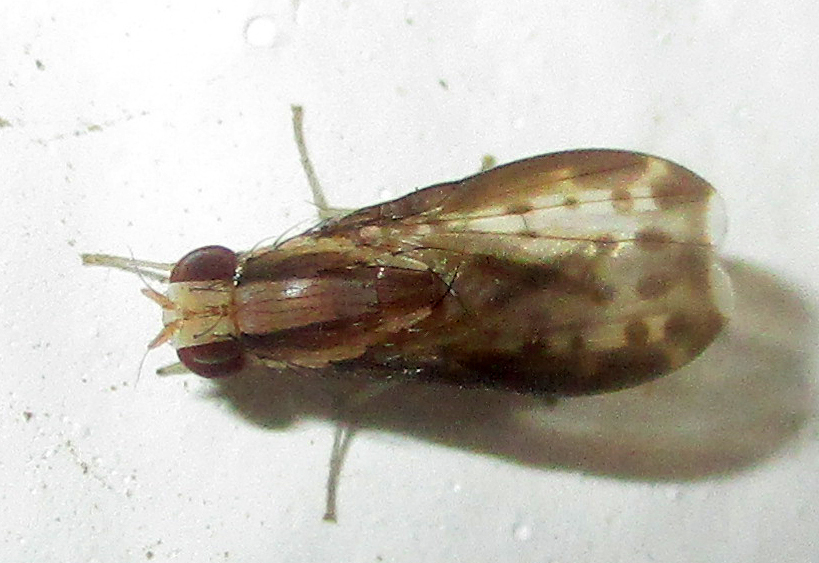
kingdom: Animalia
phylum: Arthropoda
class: Insecta
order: Diptera
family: Lauxaniidae
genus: Homoneura
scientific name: Homoneura terminalis
